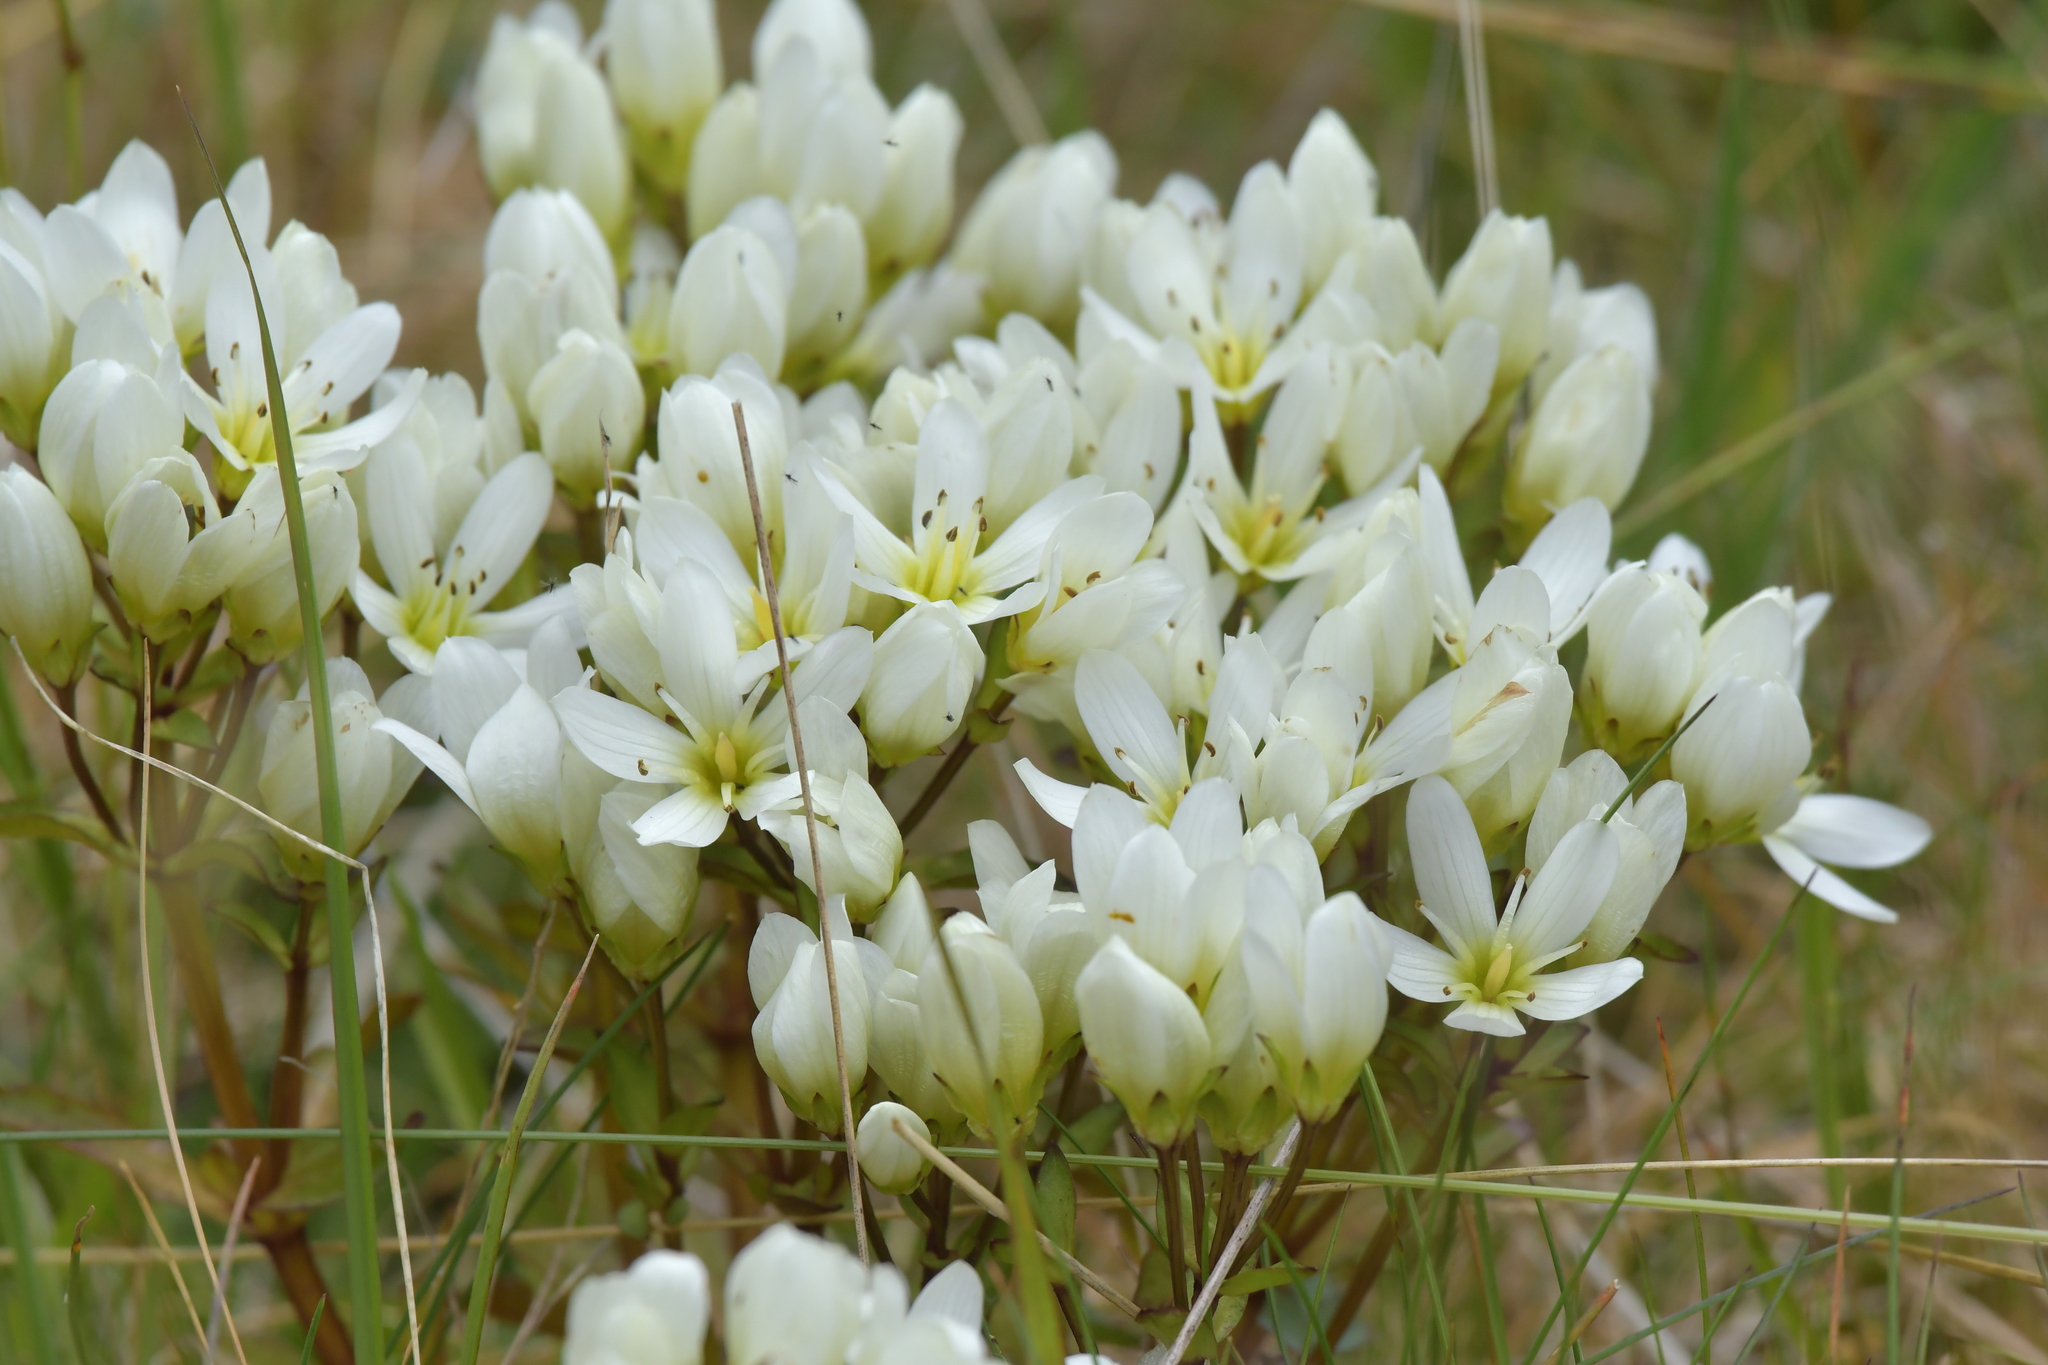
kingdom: Plantae
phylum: Tracheophyta
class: Magnoliopsida
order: Gentianales
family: Gentianaceae
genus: Gentianella
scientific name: Gentianella corymbifera
